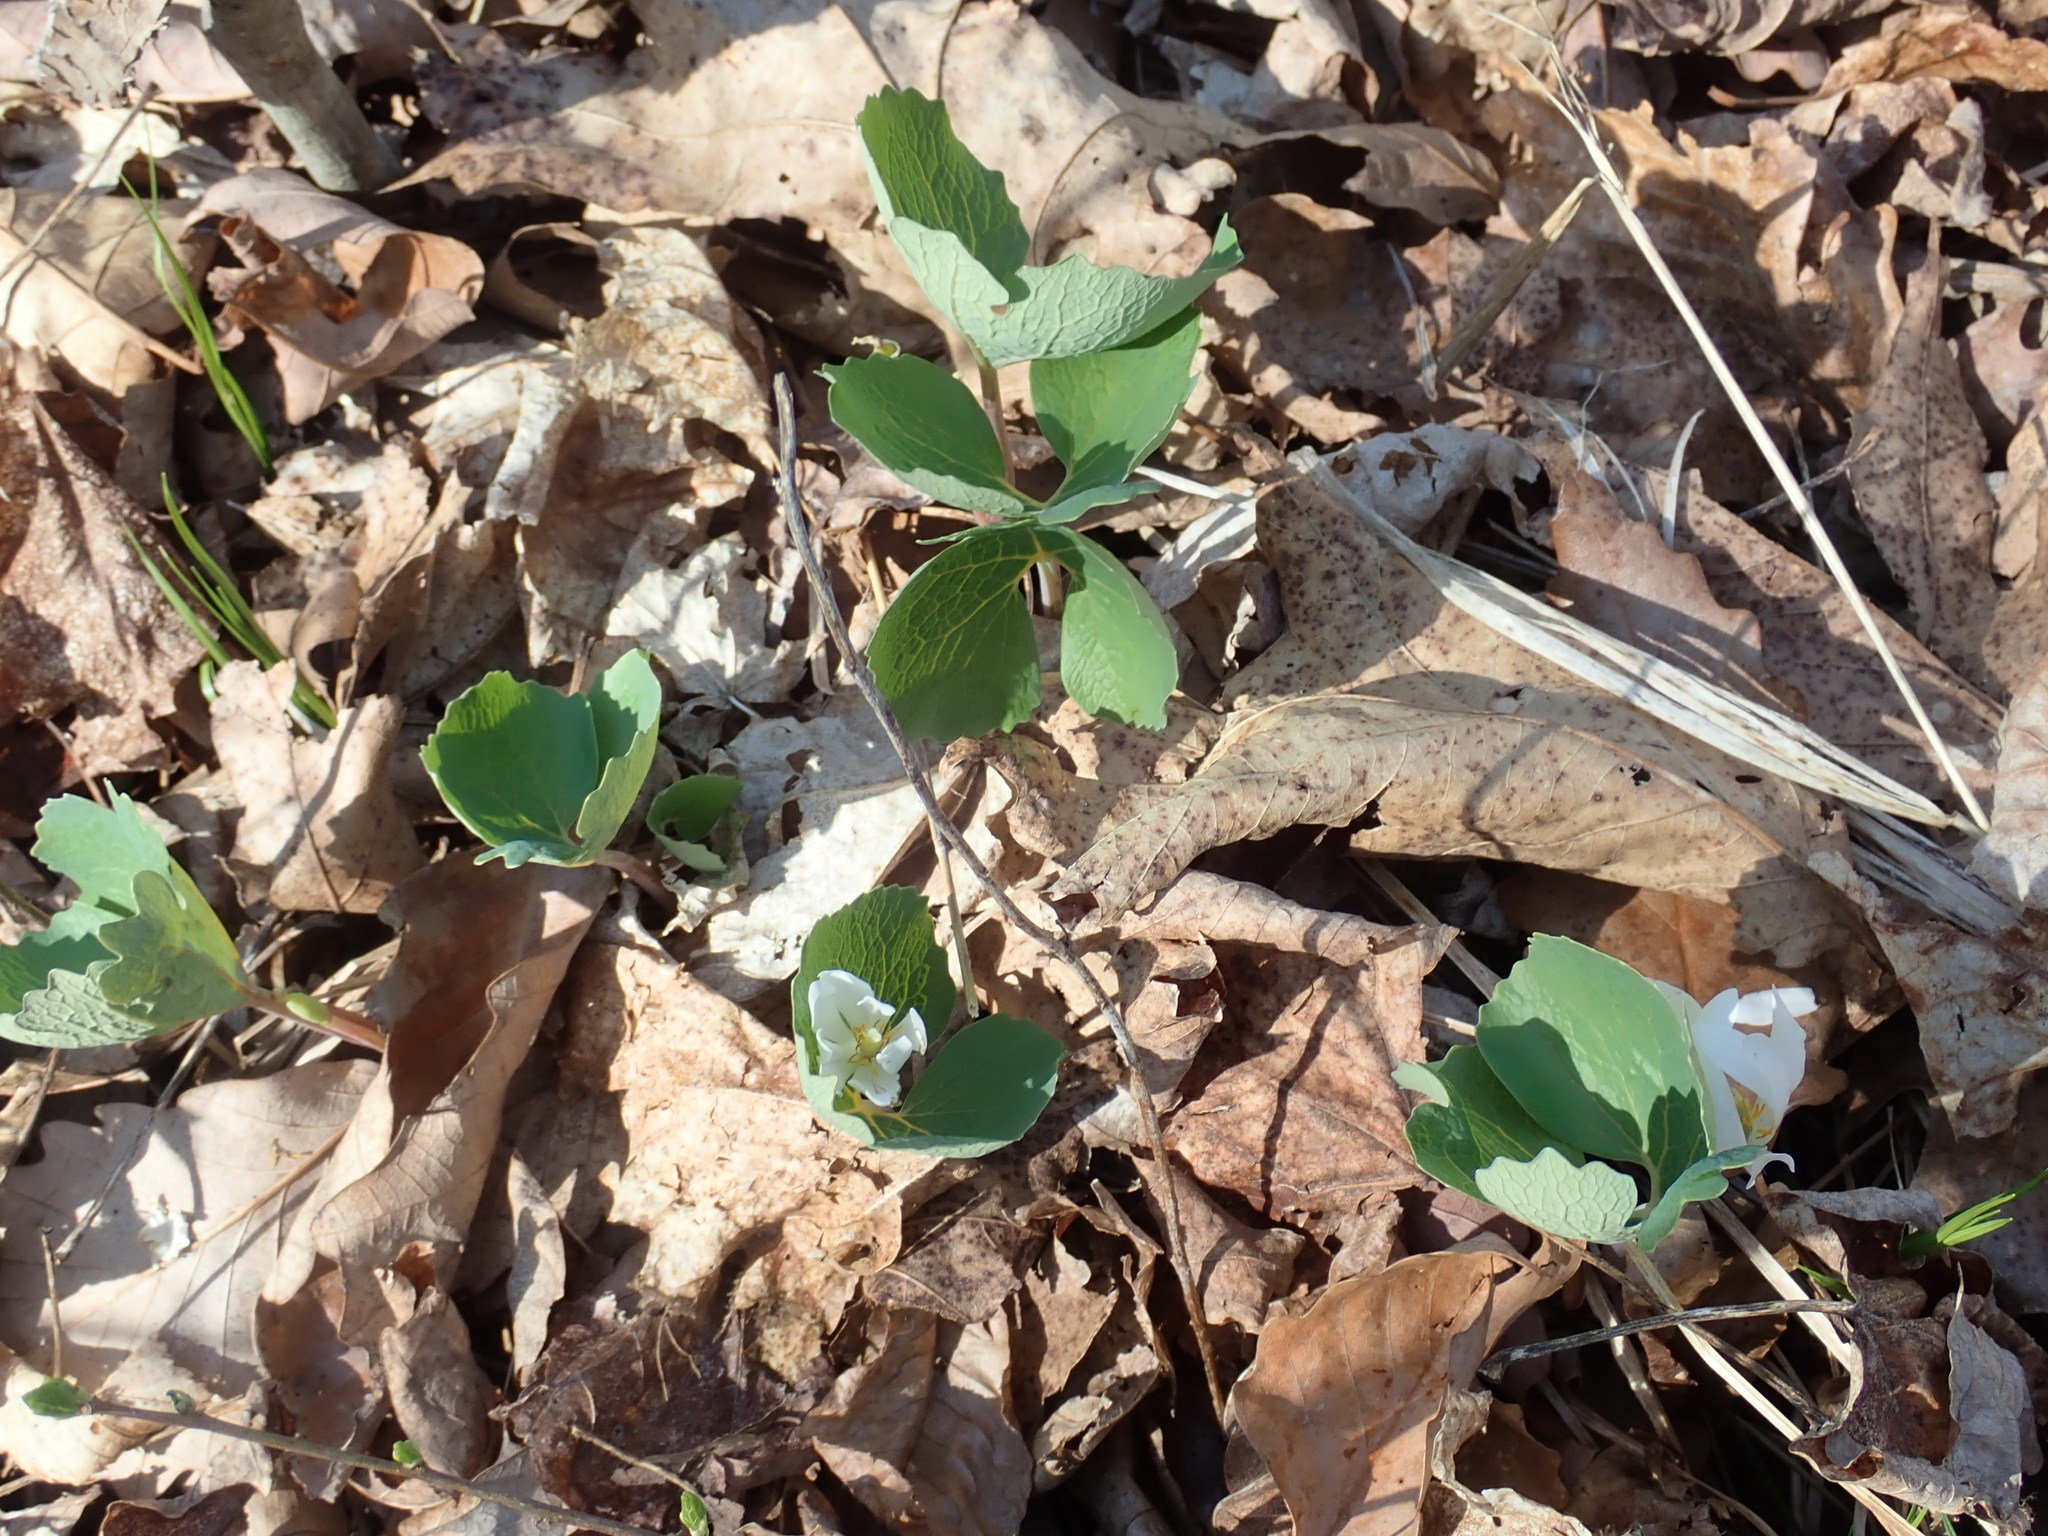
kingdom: Plantae
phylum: Tracheophyta
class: Magnoliopsida
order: Ranunculales
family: Papaveraceae
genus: Sanguinaria
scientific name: Sanguinaria canadensis
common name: Bloodroot
